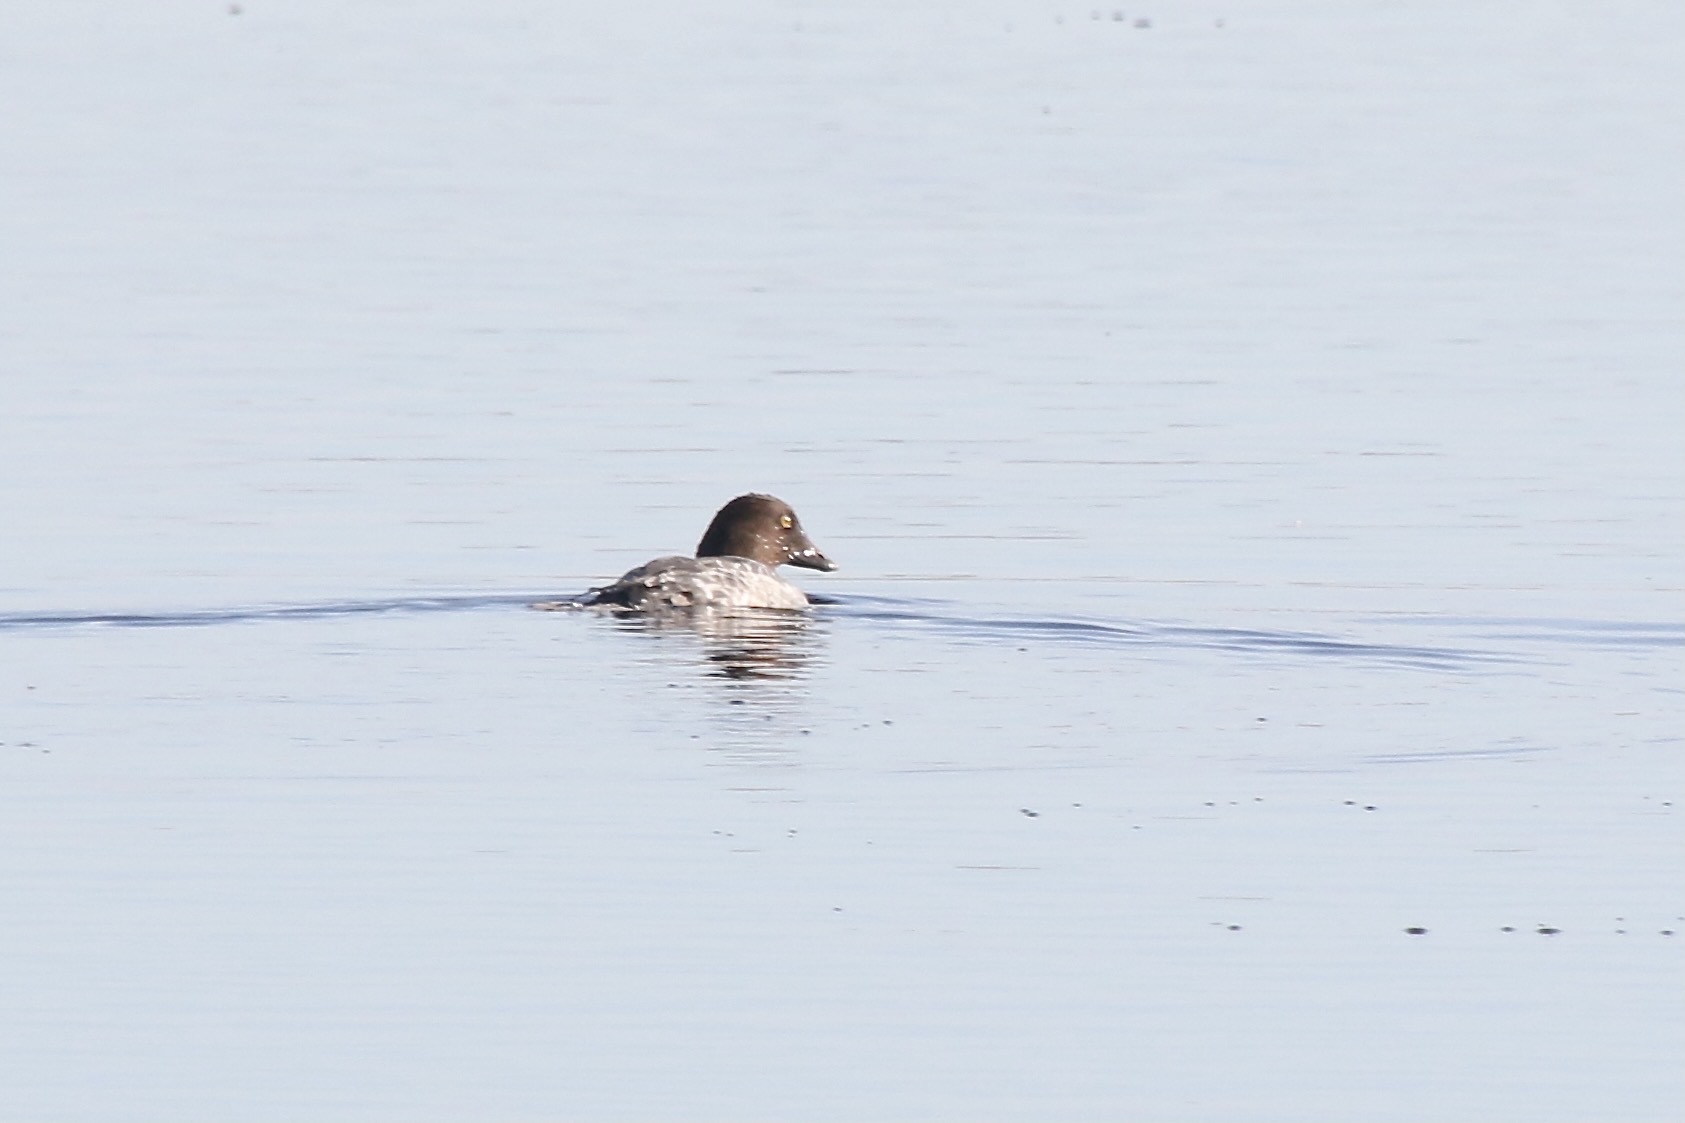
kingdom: Animalia
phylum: Chordata
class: Aves
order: Anseriformes
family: Anatidae
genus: Bucephala
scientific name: Bucephala clangula
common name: Common goldeneye
